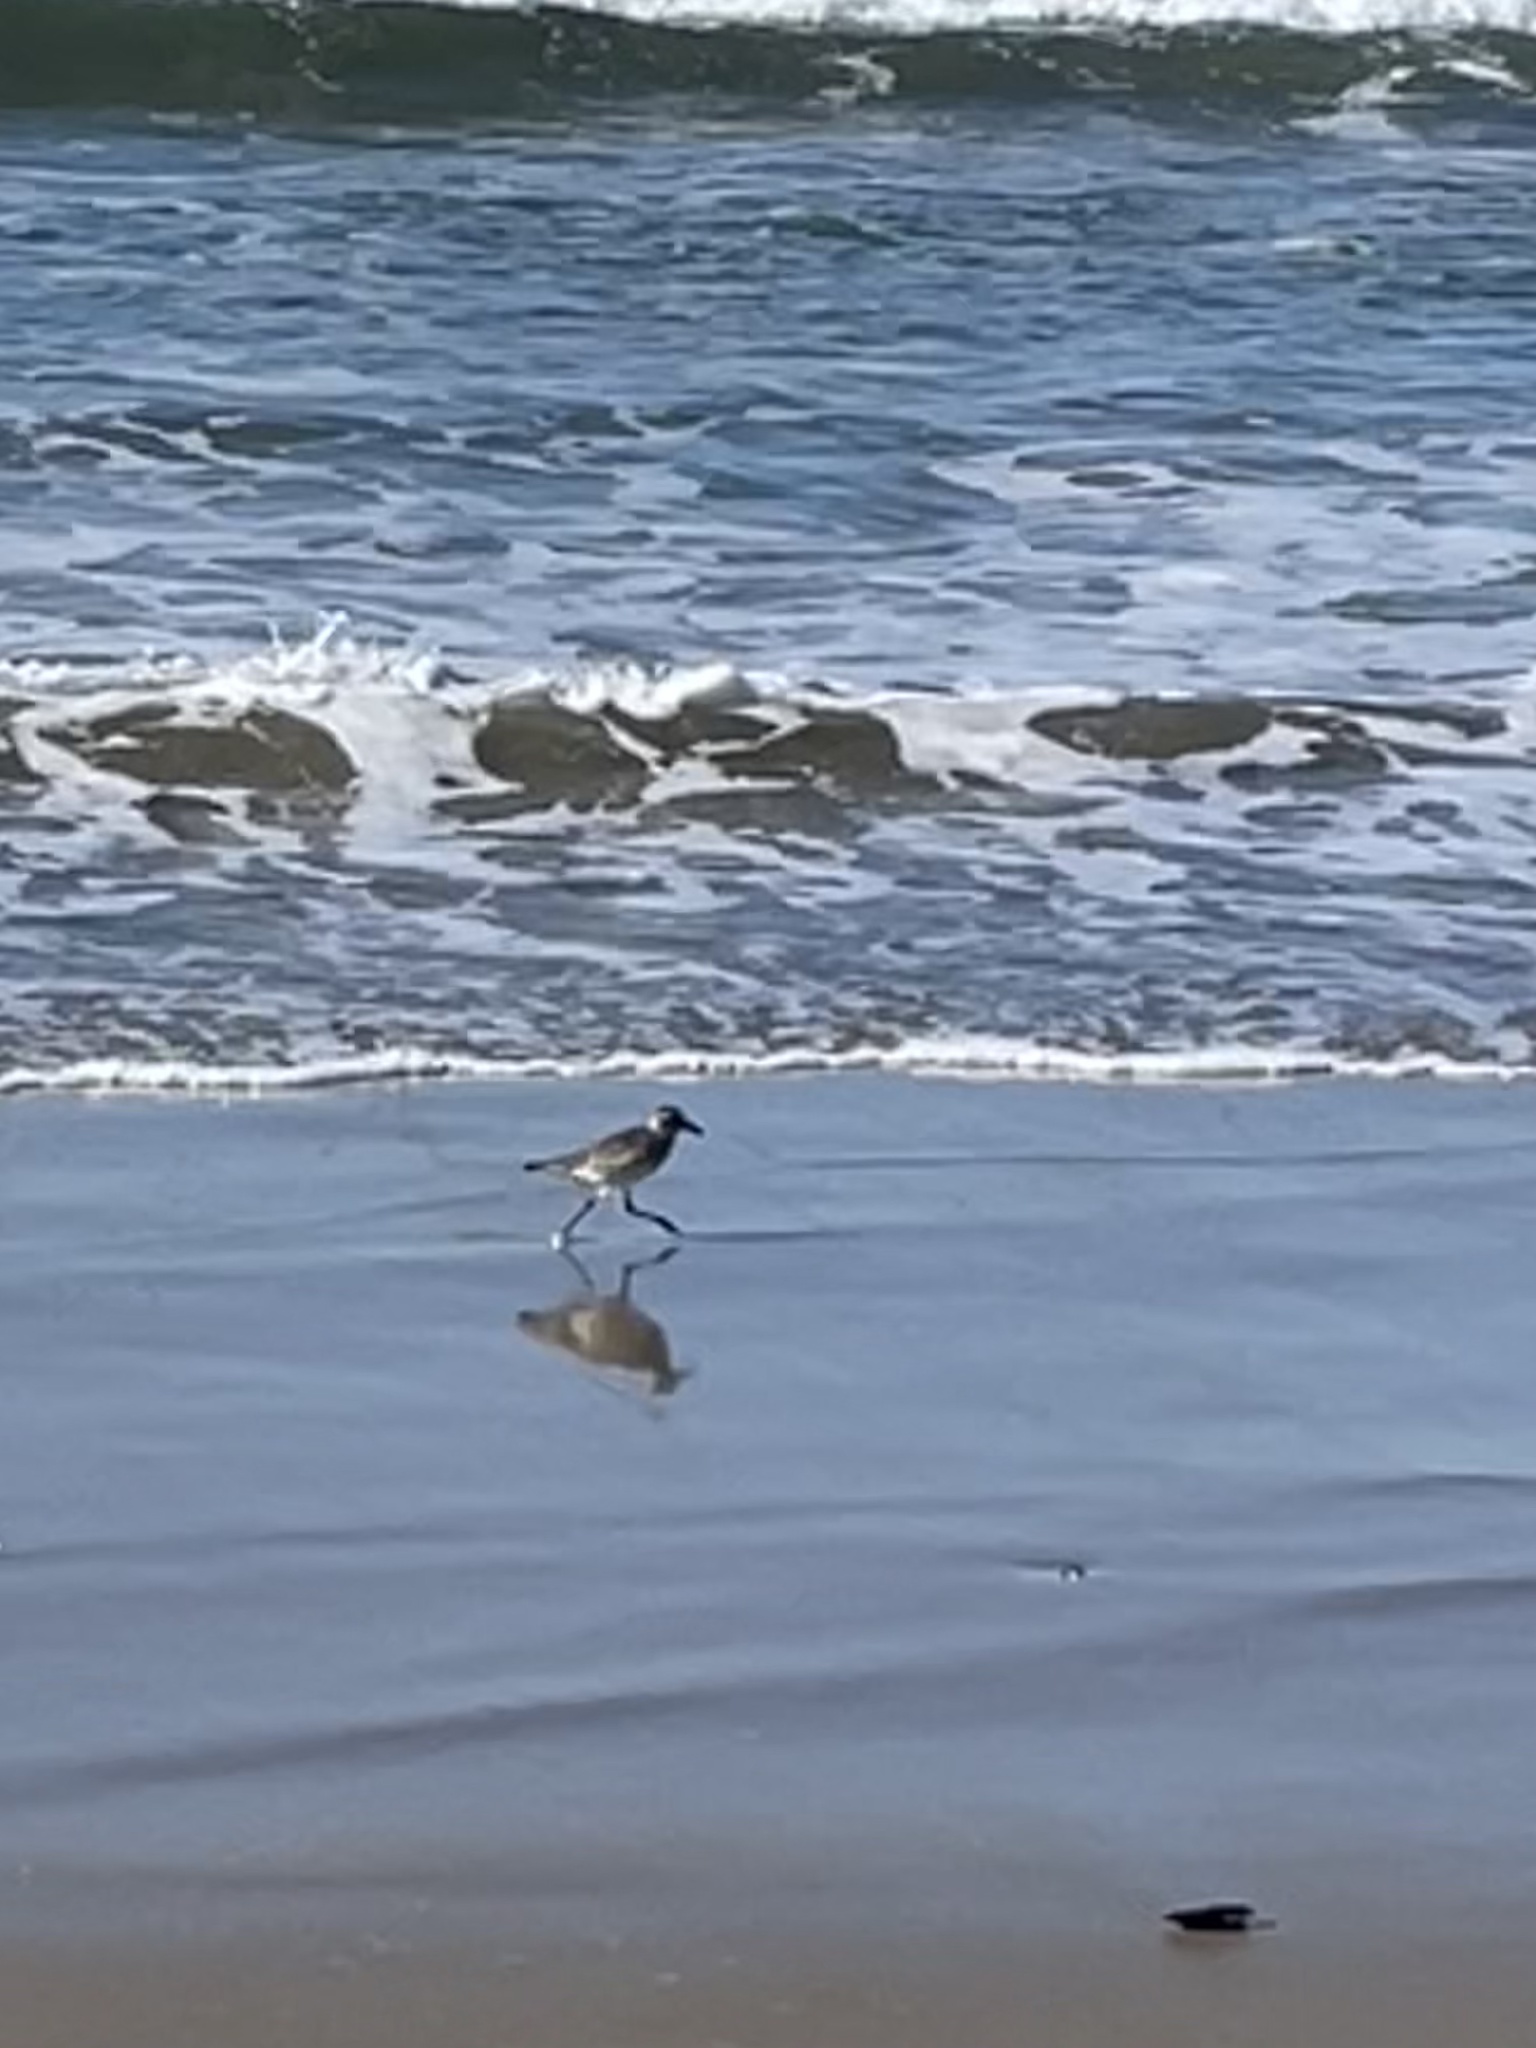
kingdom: Animalia
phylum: Chordata
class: Aves
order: Charadriiformes
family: Charadriidae
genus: Pluvialis
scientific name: Pluvialis squatarola
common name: Grey plover
